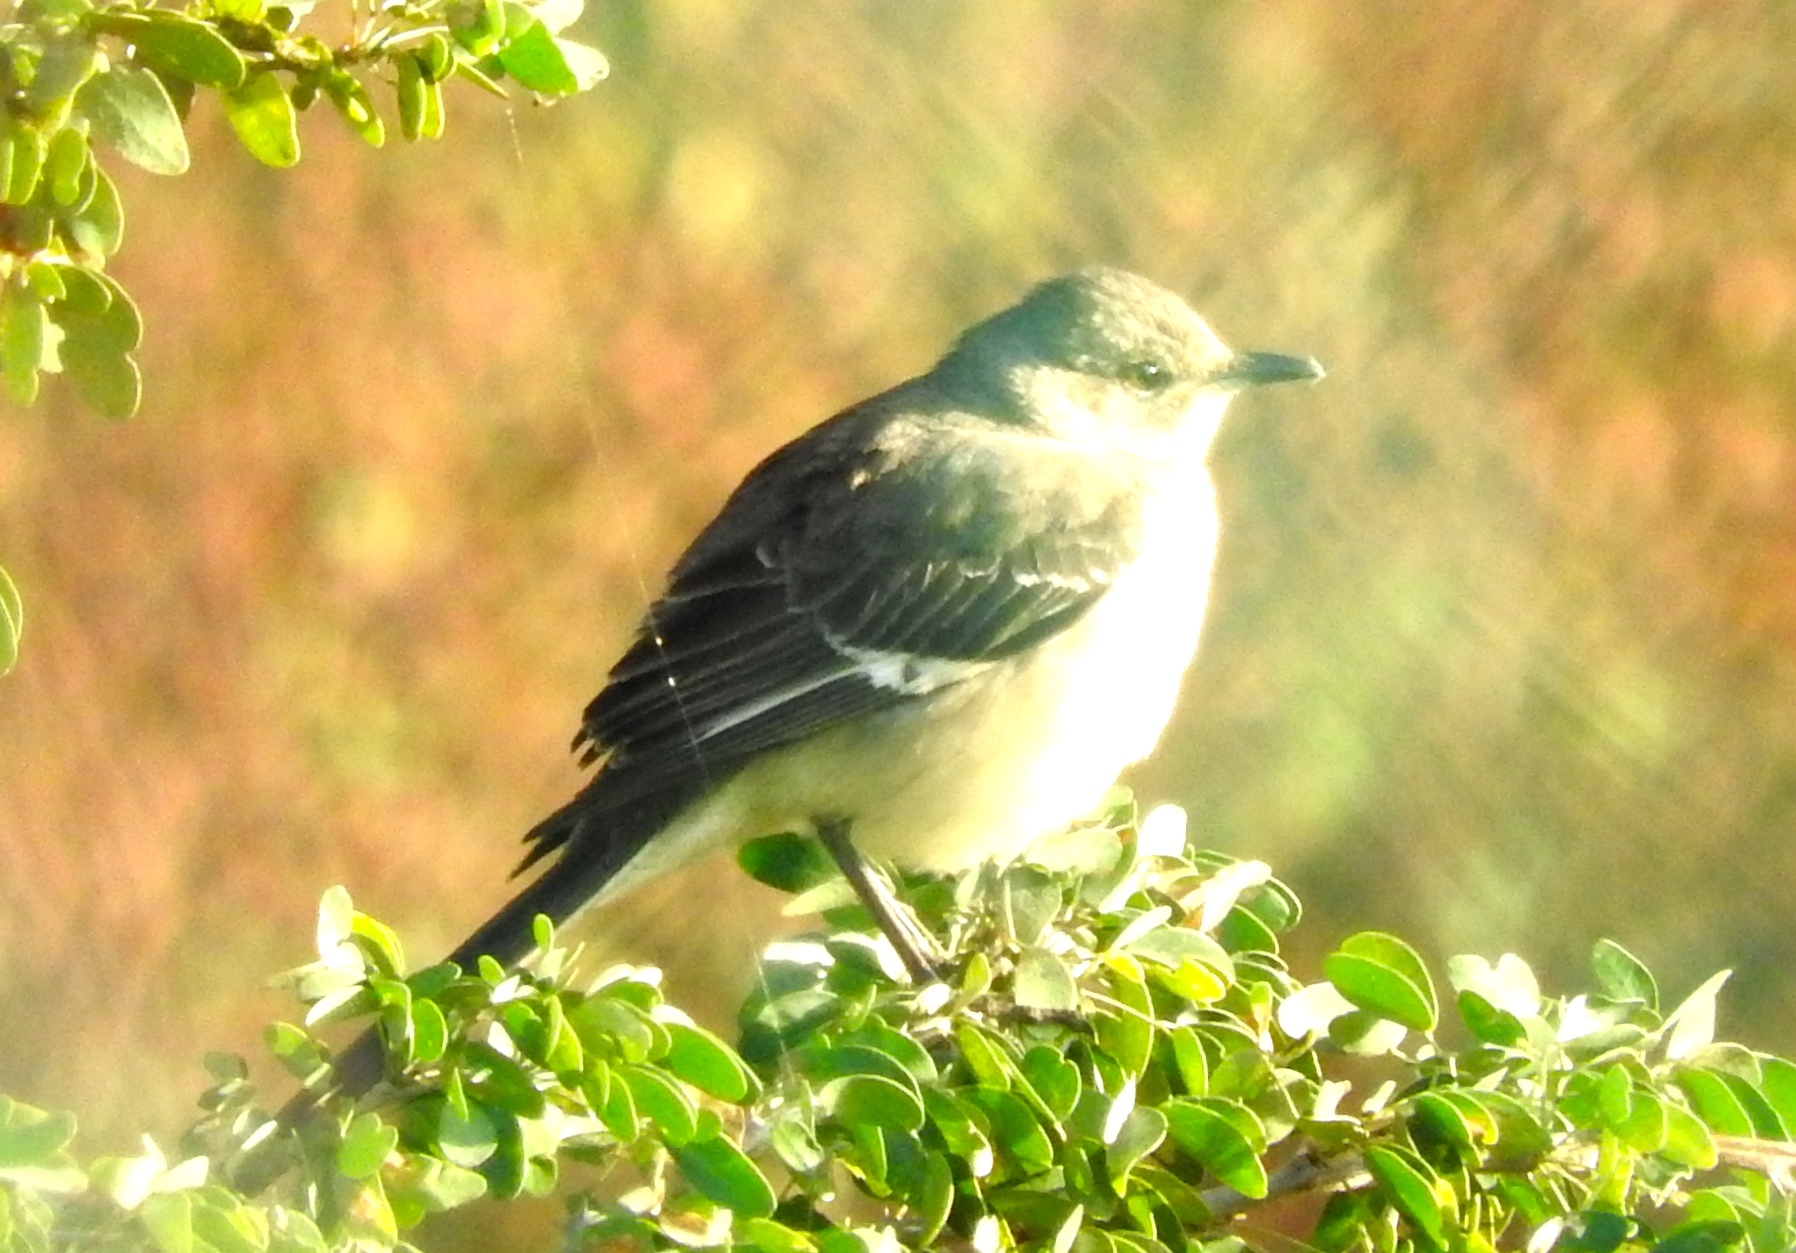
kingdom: Animalia
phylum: Chordata
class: Aves
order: Passeriformes
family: Mimidae
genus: Mimus
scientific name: Mimus polyglottos
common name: Northern mockingbird
